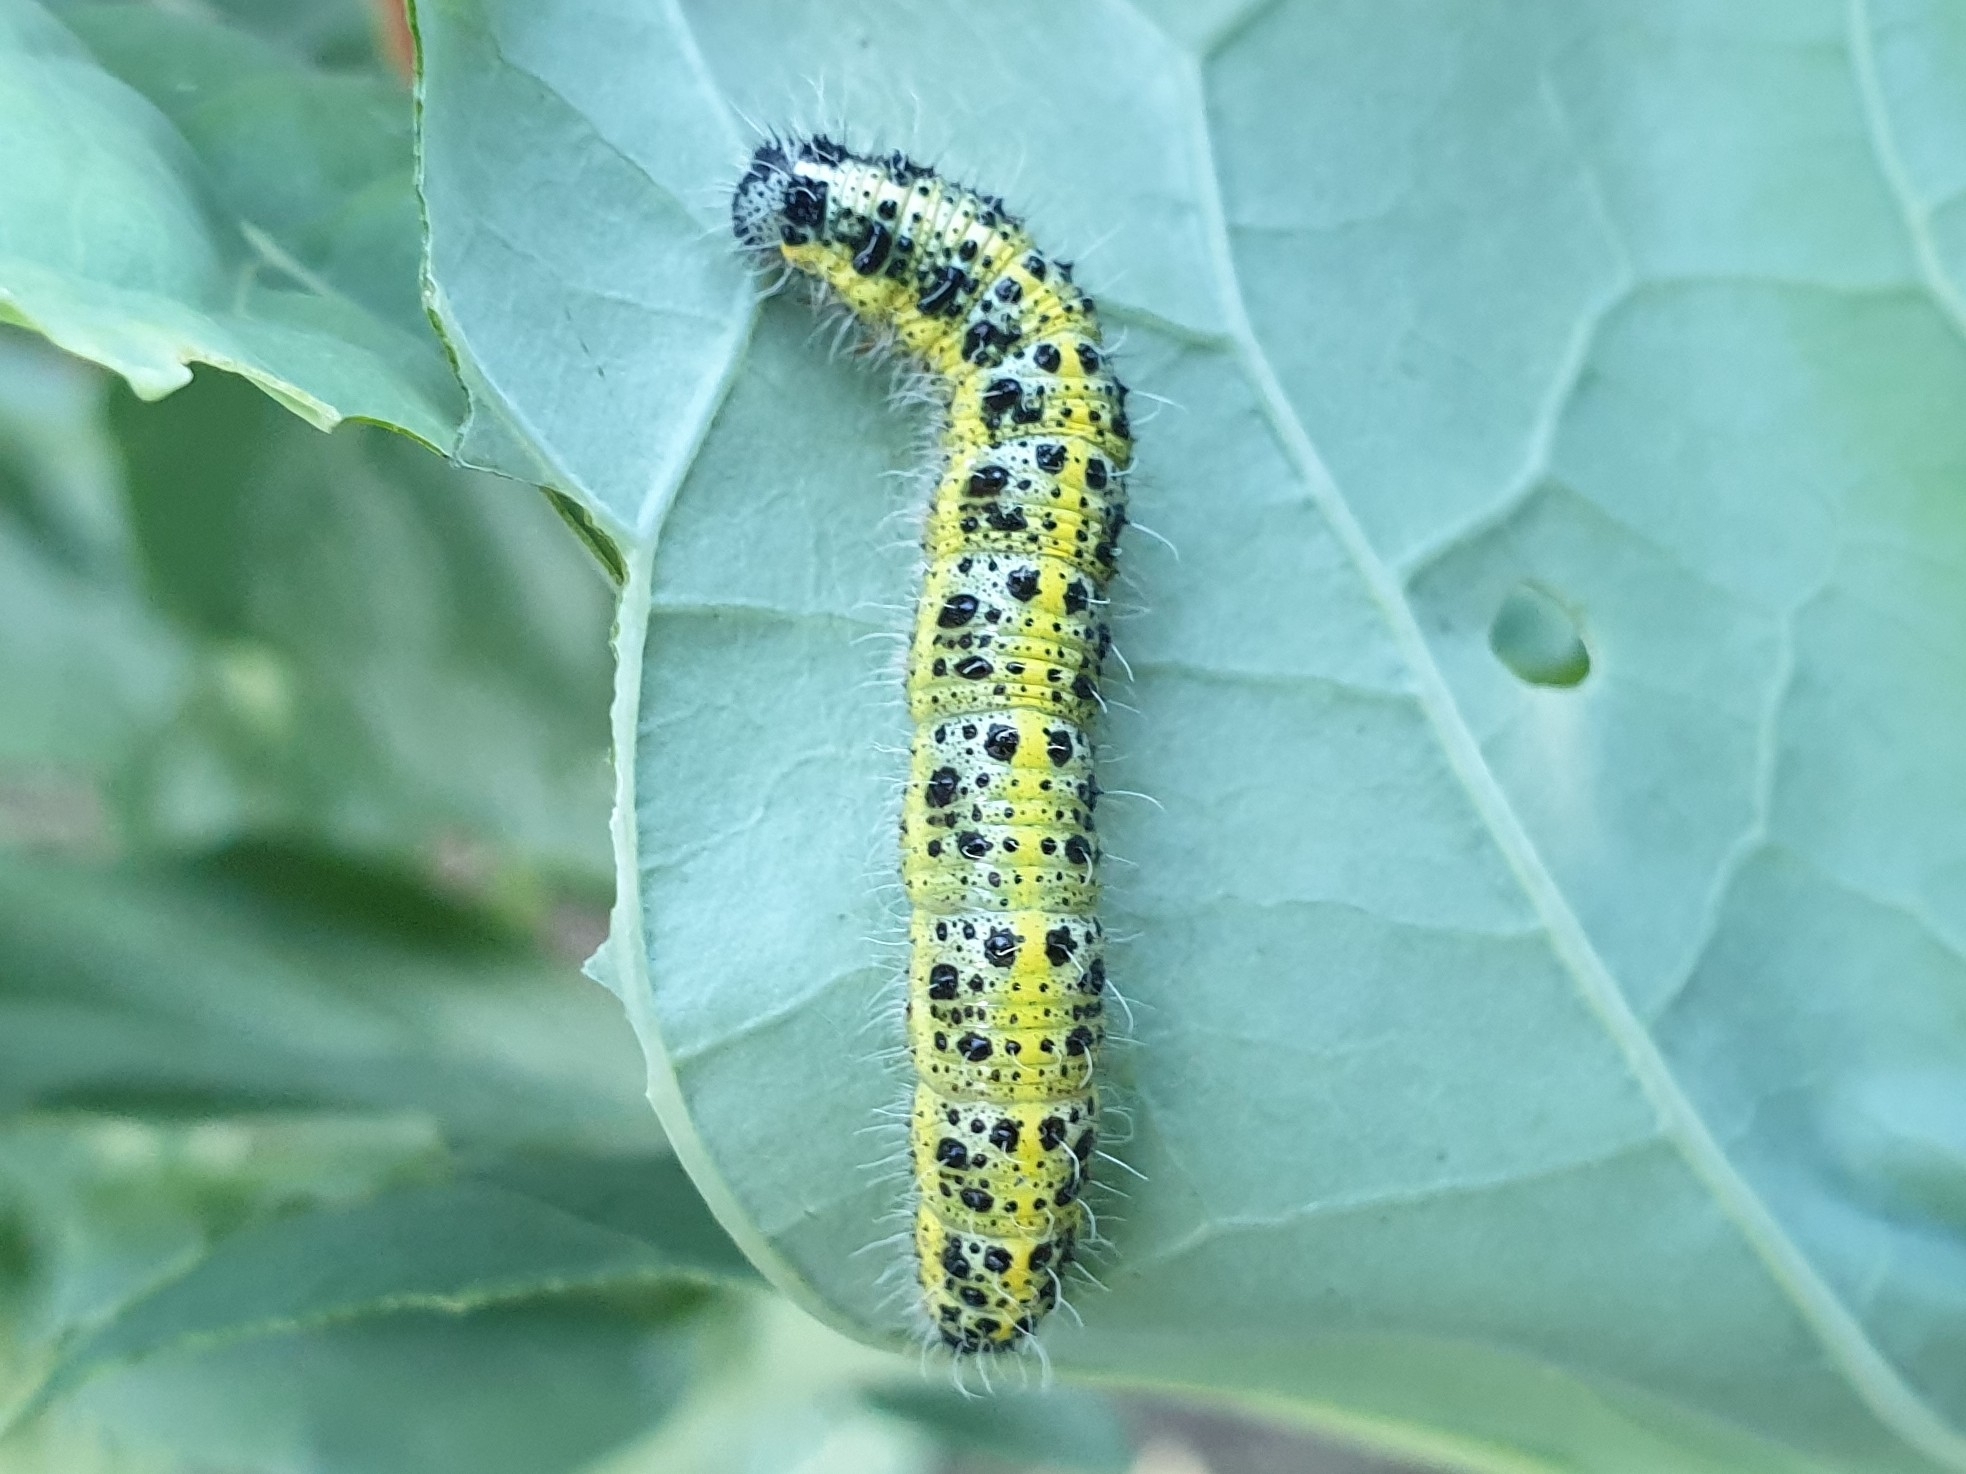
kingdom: Animalia
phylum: Arthropoda
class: Insecta
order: Lepidoptera
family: Pieridae
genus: Pieris
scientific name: Pieris brassicae
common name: Large white
